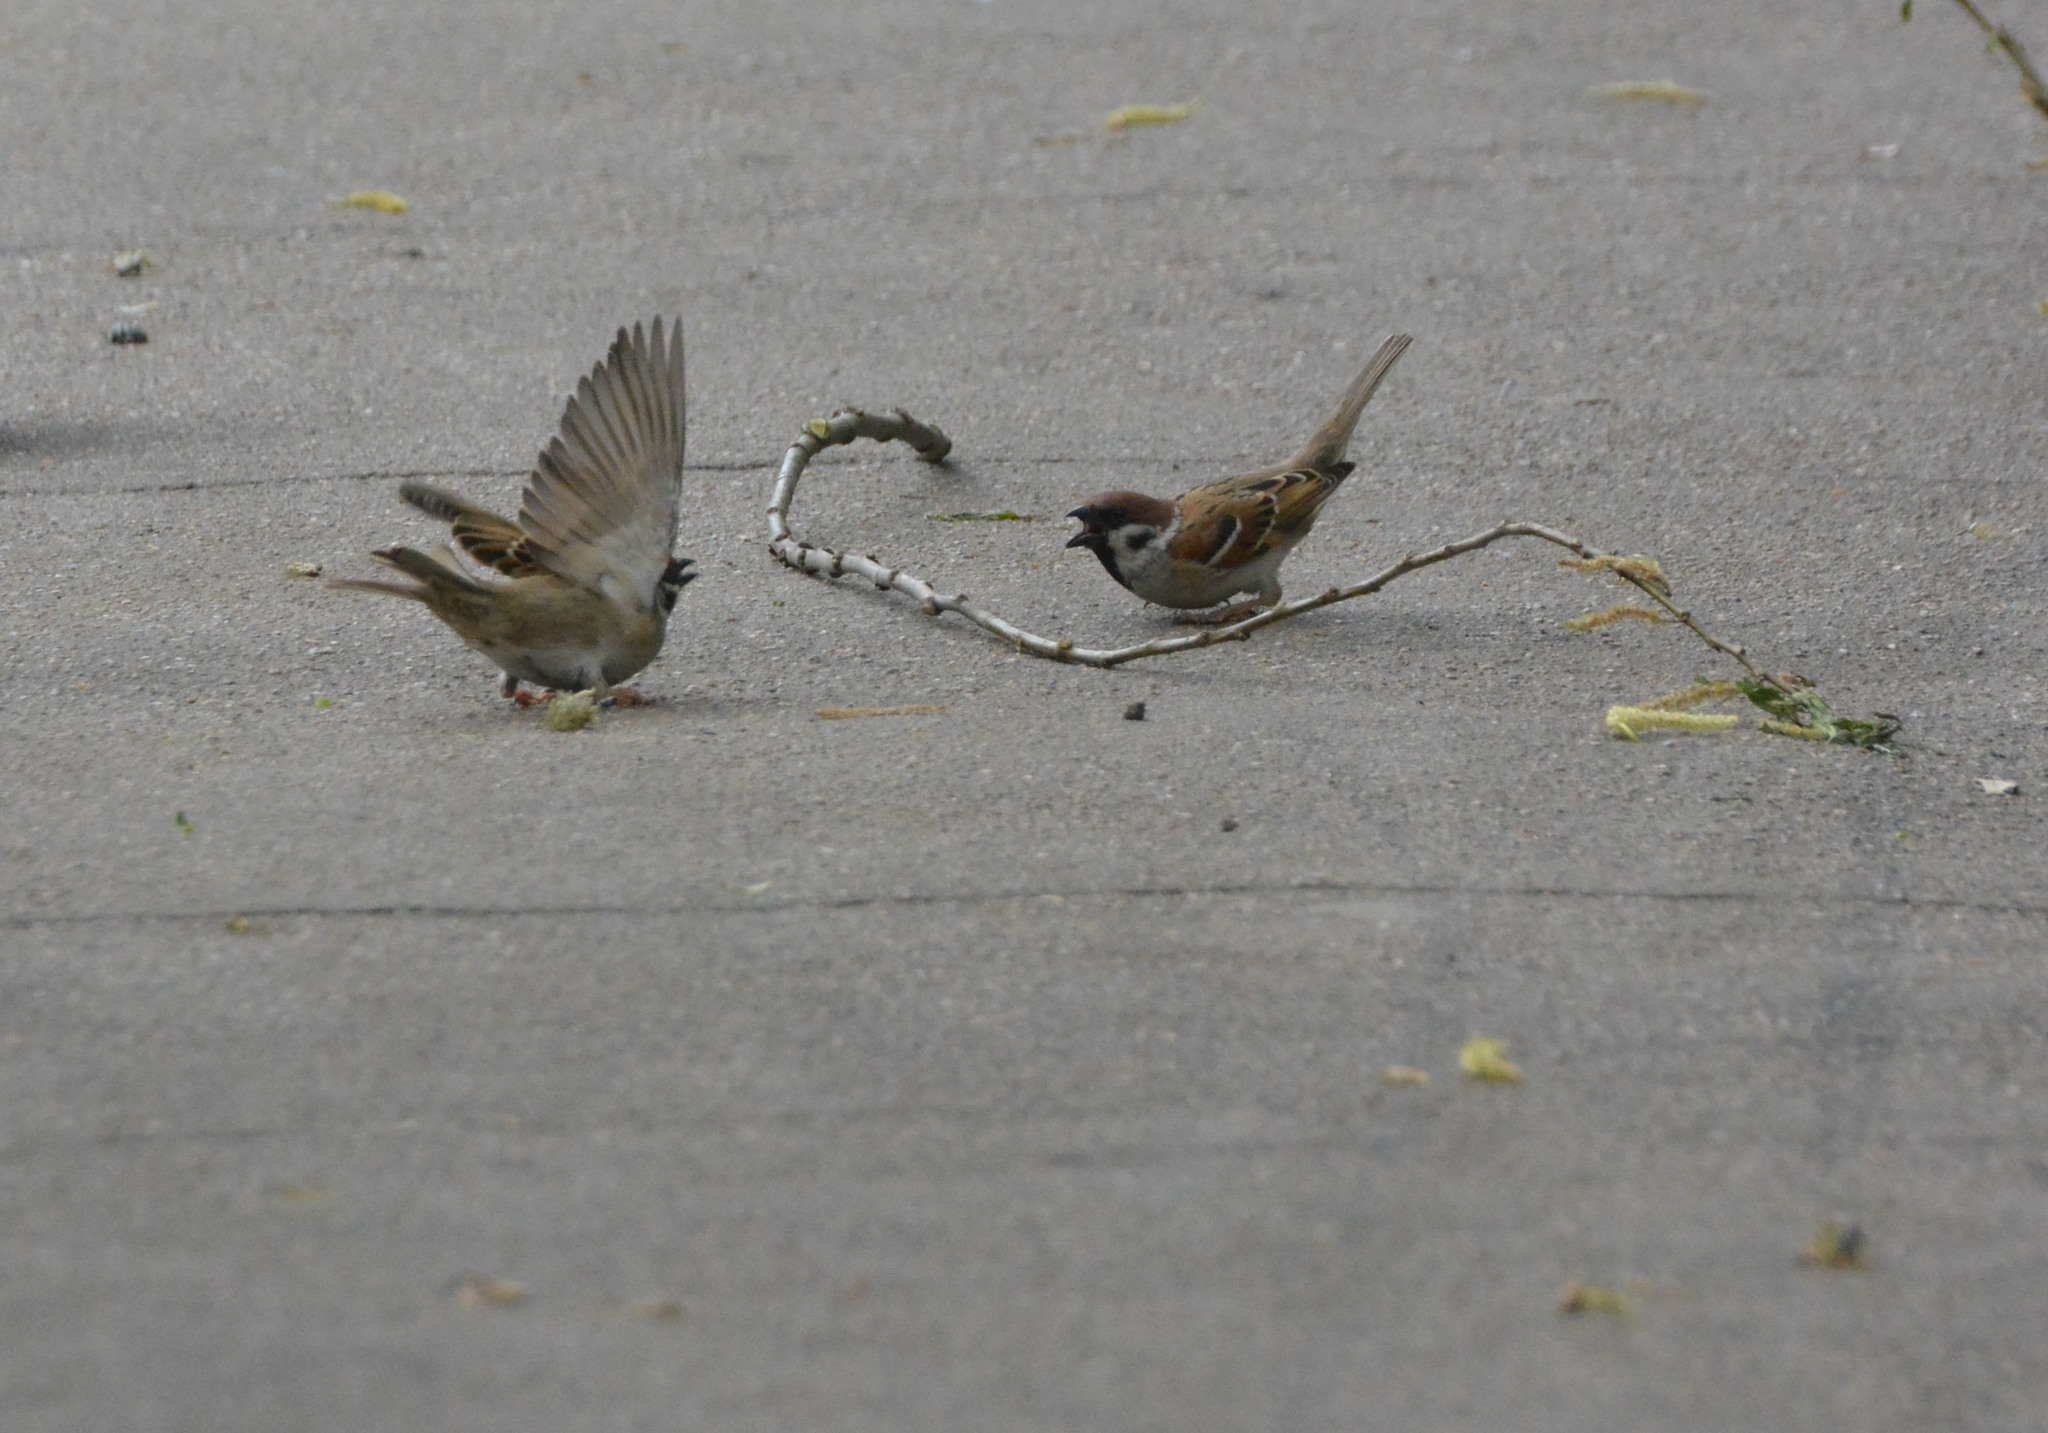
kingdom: Animalia
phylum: Chordata
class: Aves
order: Passeriformes
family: Passeridae
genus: Passer
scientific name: Passer montanus
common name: Eurasian tree sparrow
